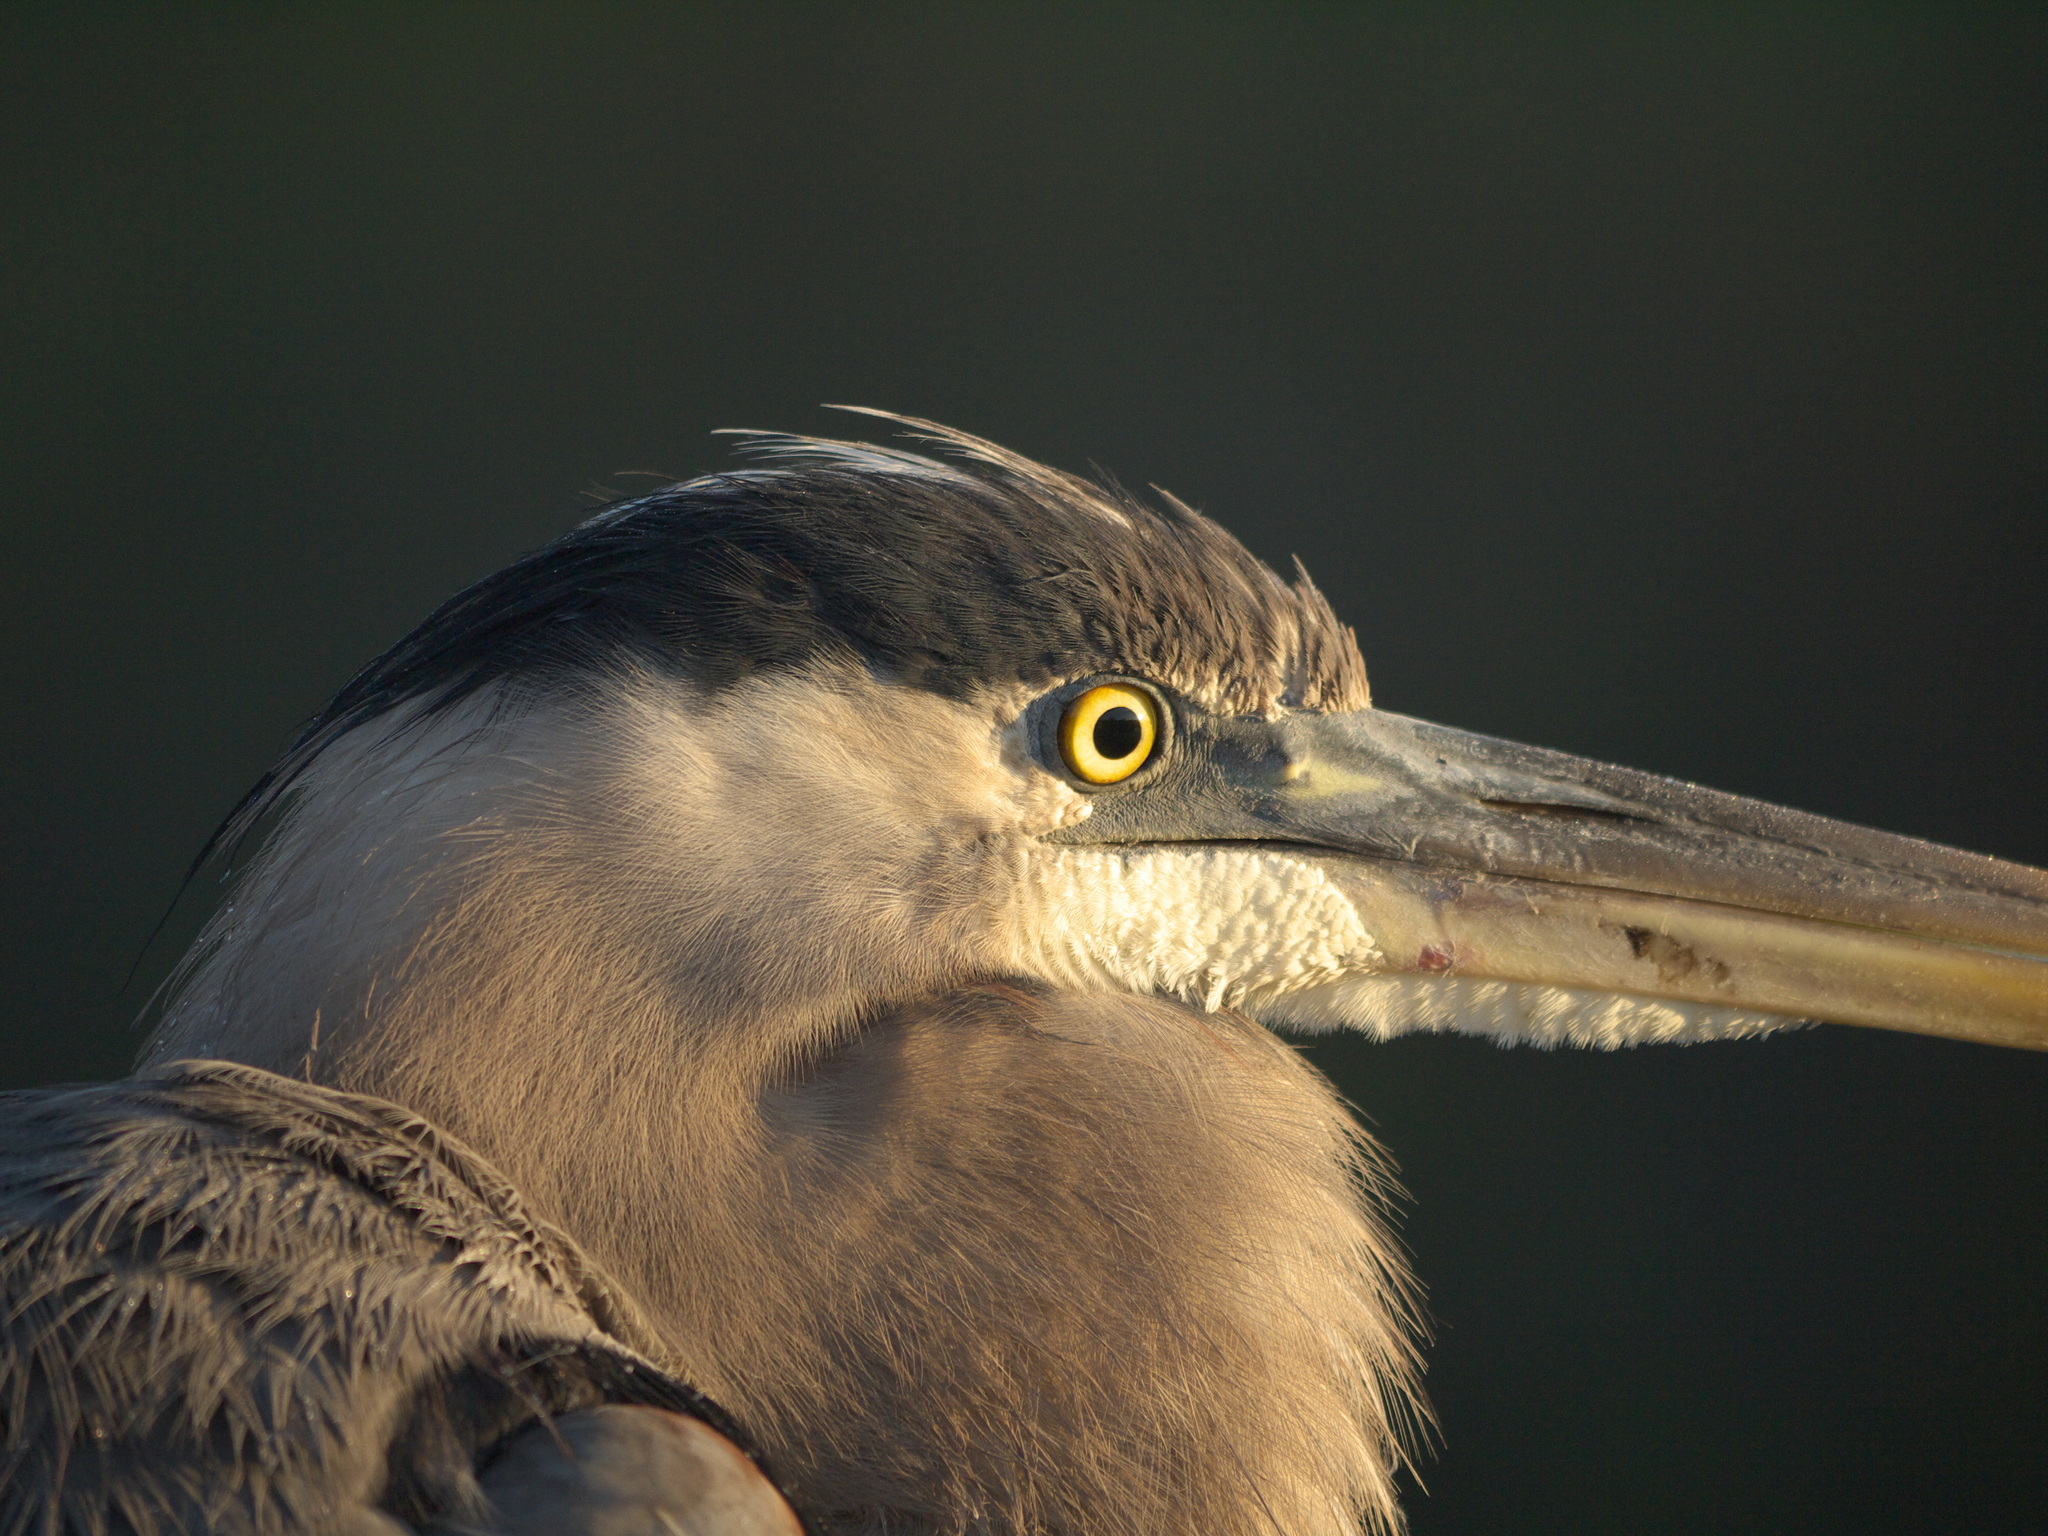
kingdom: Animalia
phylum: Chordata
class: Aves
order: Pelecaniformes
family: Ardeidae
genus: Ardea
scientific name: Ardea herodias
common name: Great blue heron
